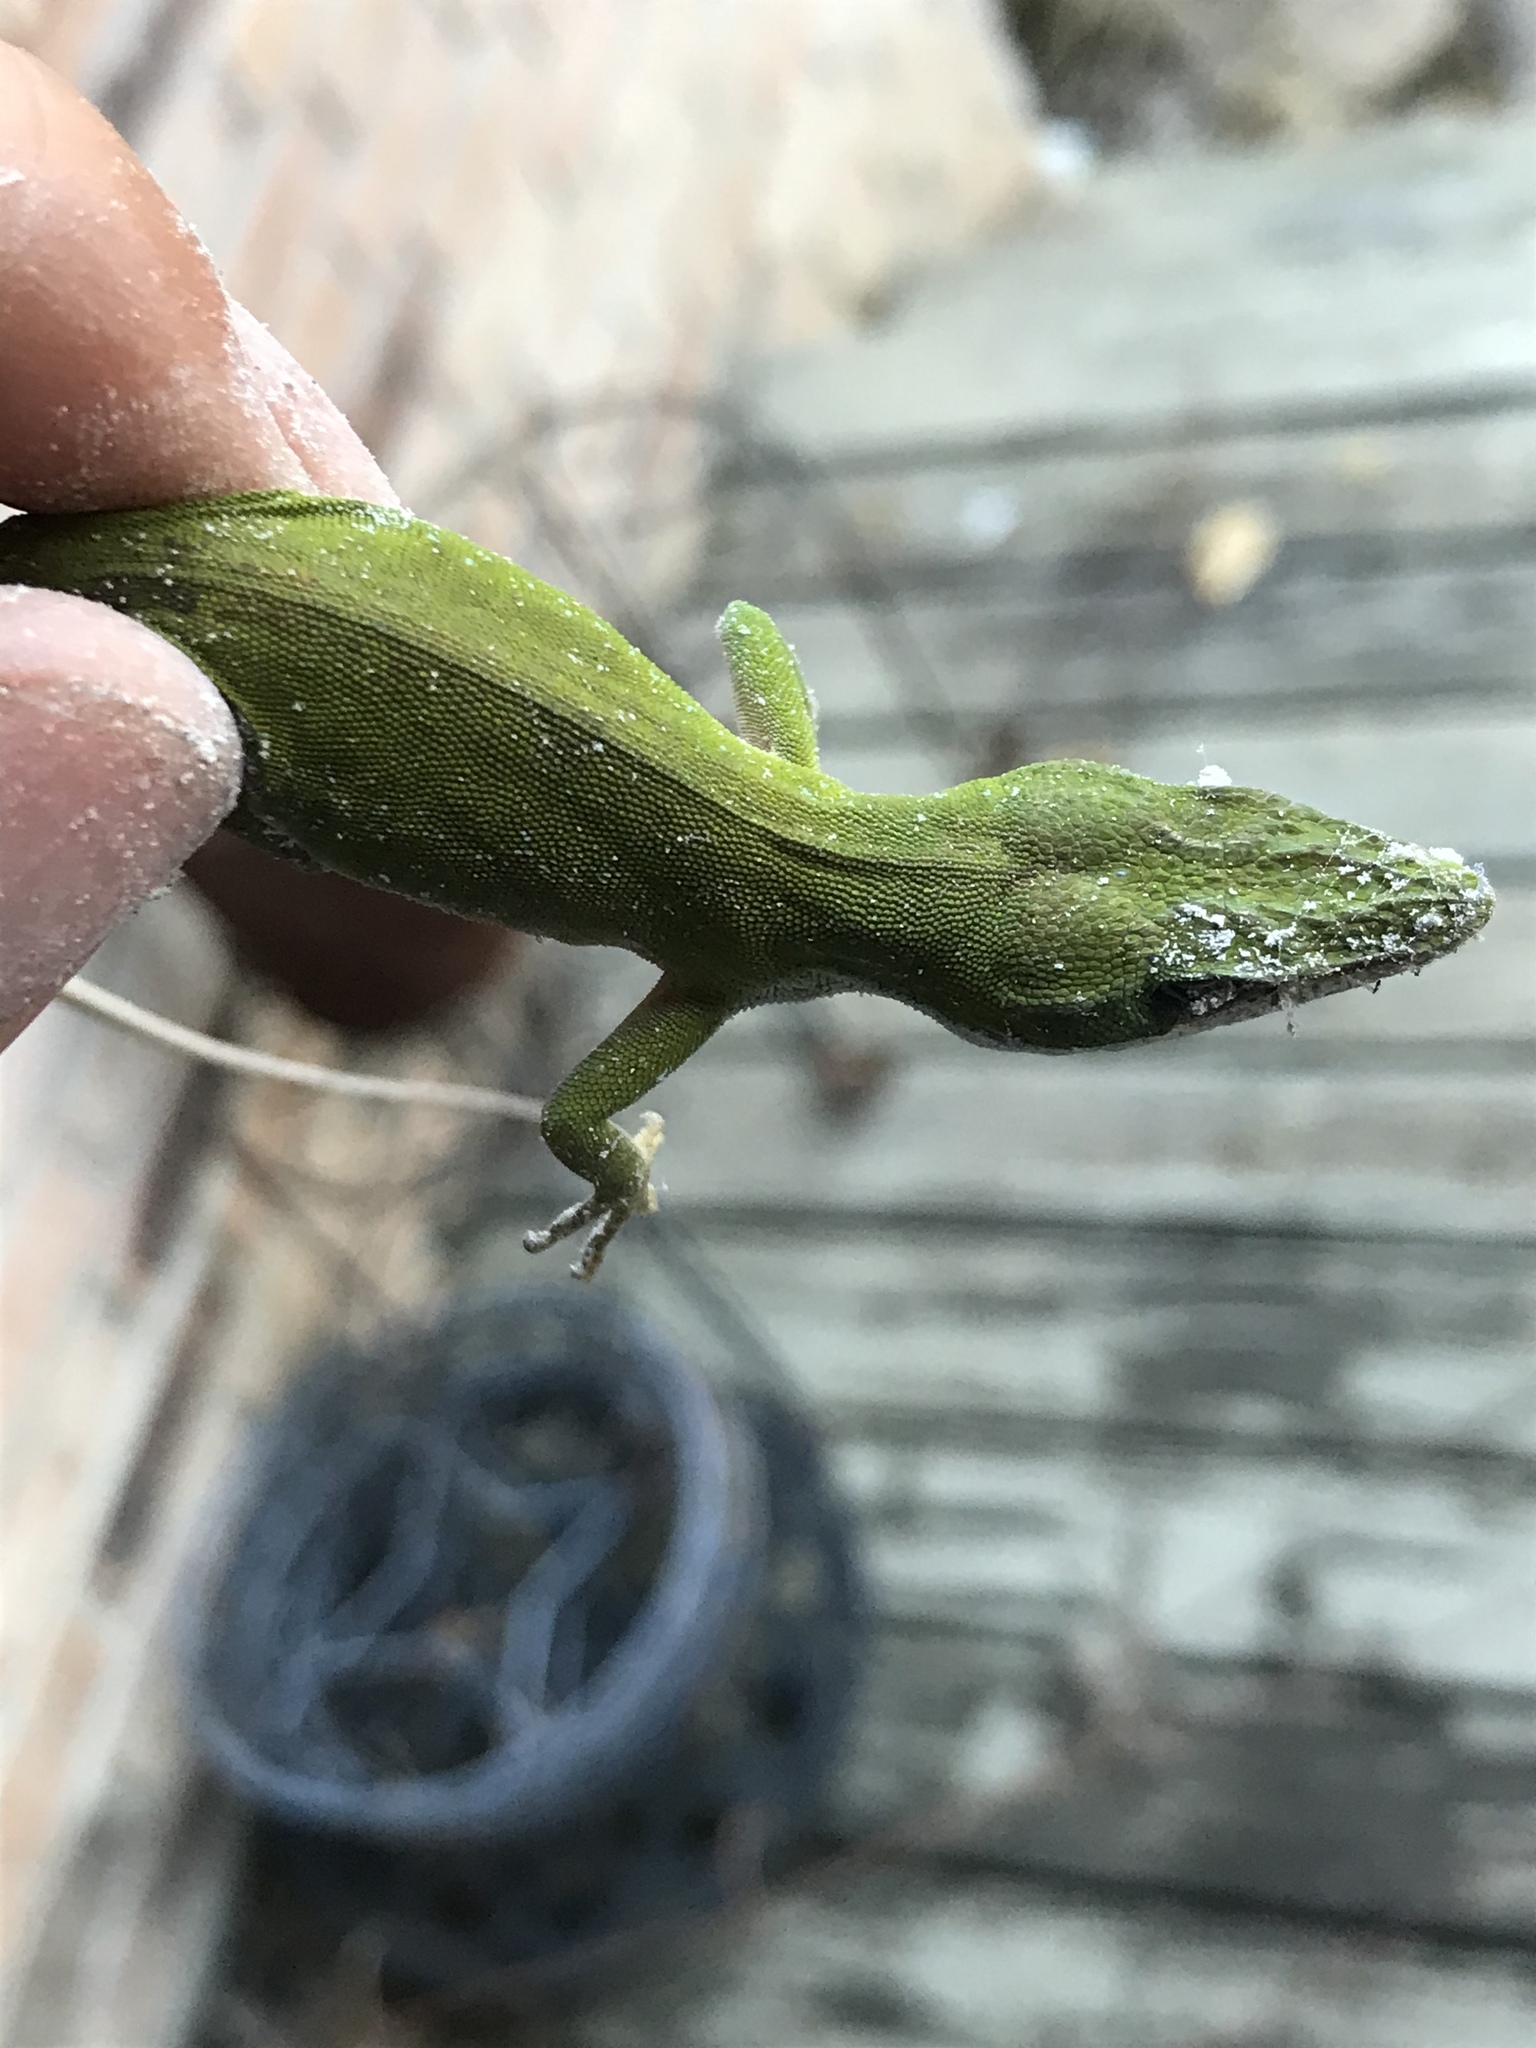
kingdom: Animalia
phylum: Chordata
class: Squamata
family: Dactyloidae
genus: Anolis
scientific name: Anolis carolinensis
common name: Green anole
